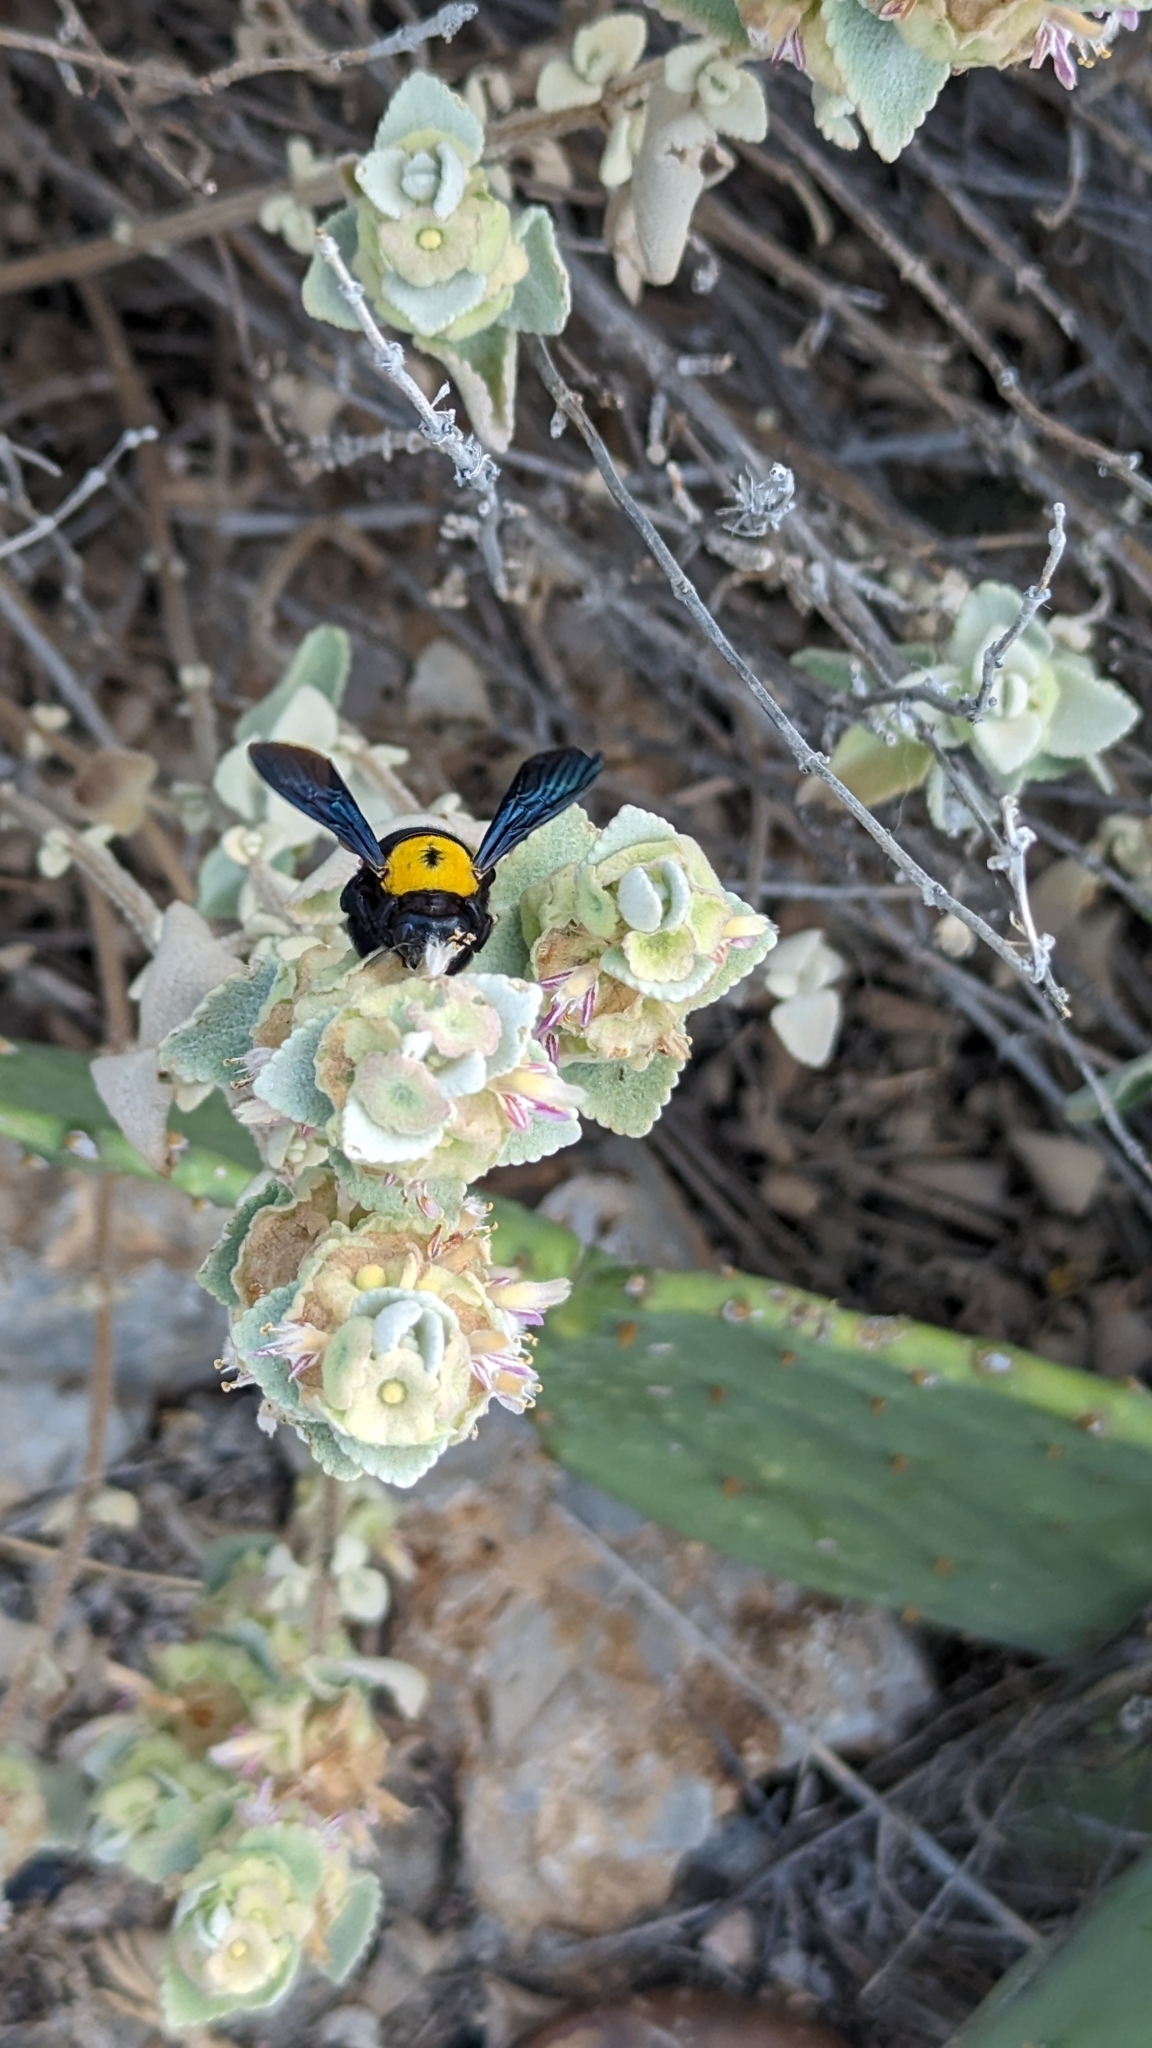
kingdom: Animalia
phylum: Arthropoda
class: Insecta
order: Hymenoptera
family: Apidae
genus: Xylocopa
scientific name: Xylocopa pubescens
